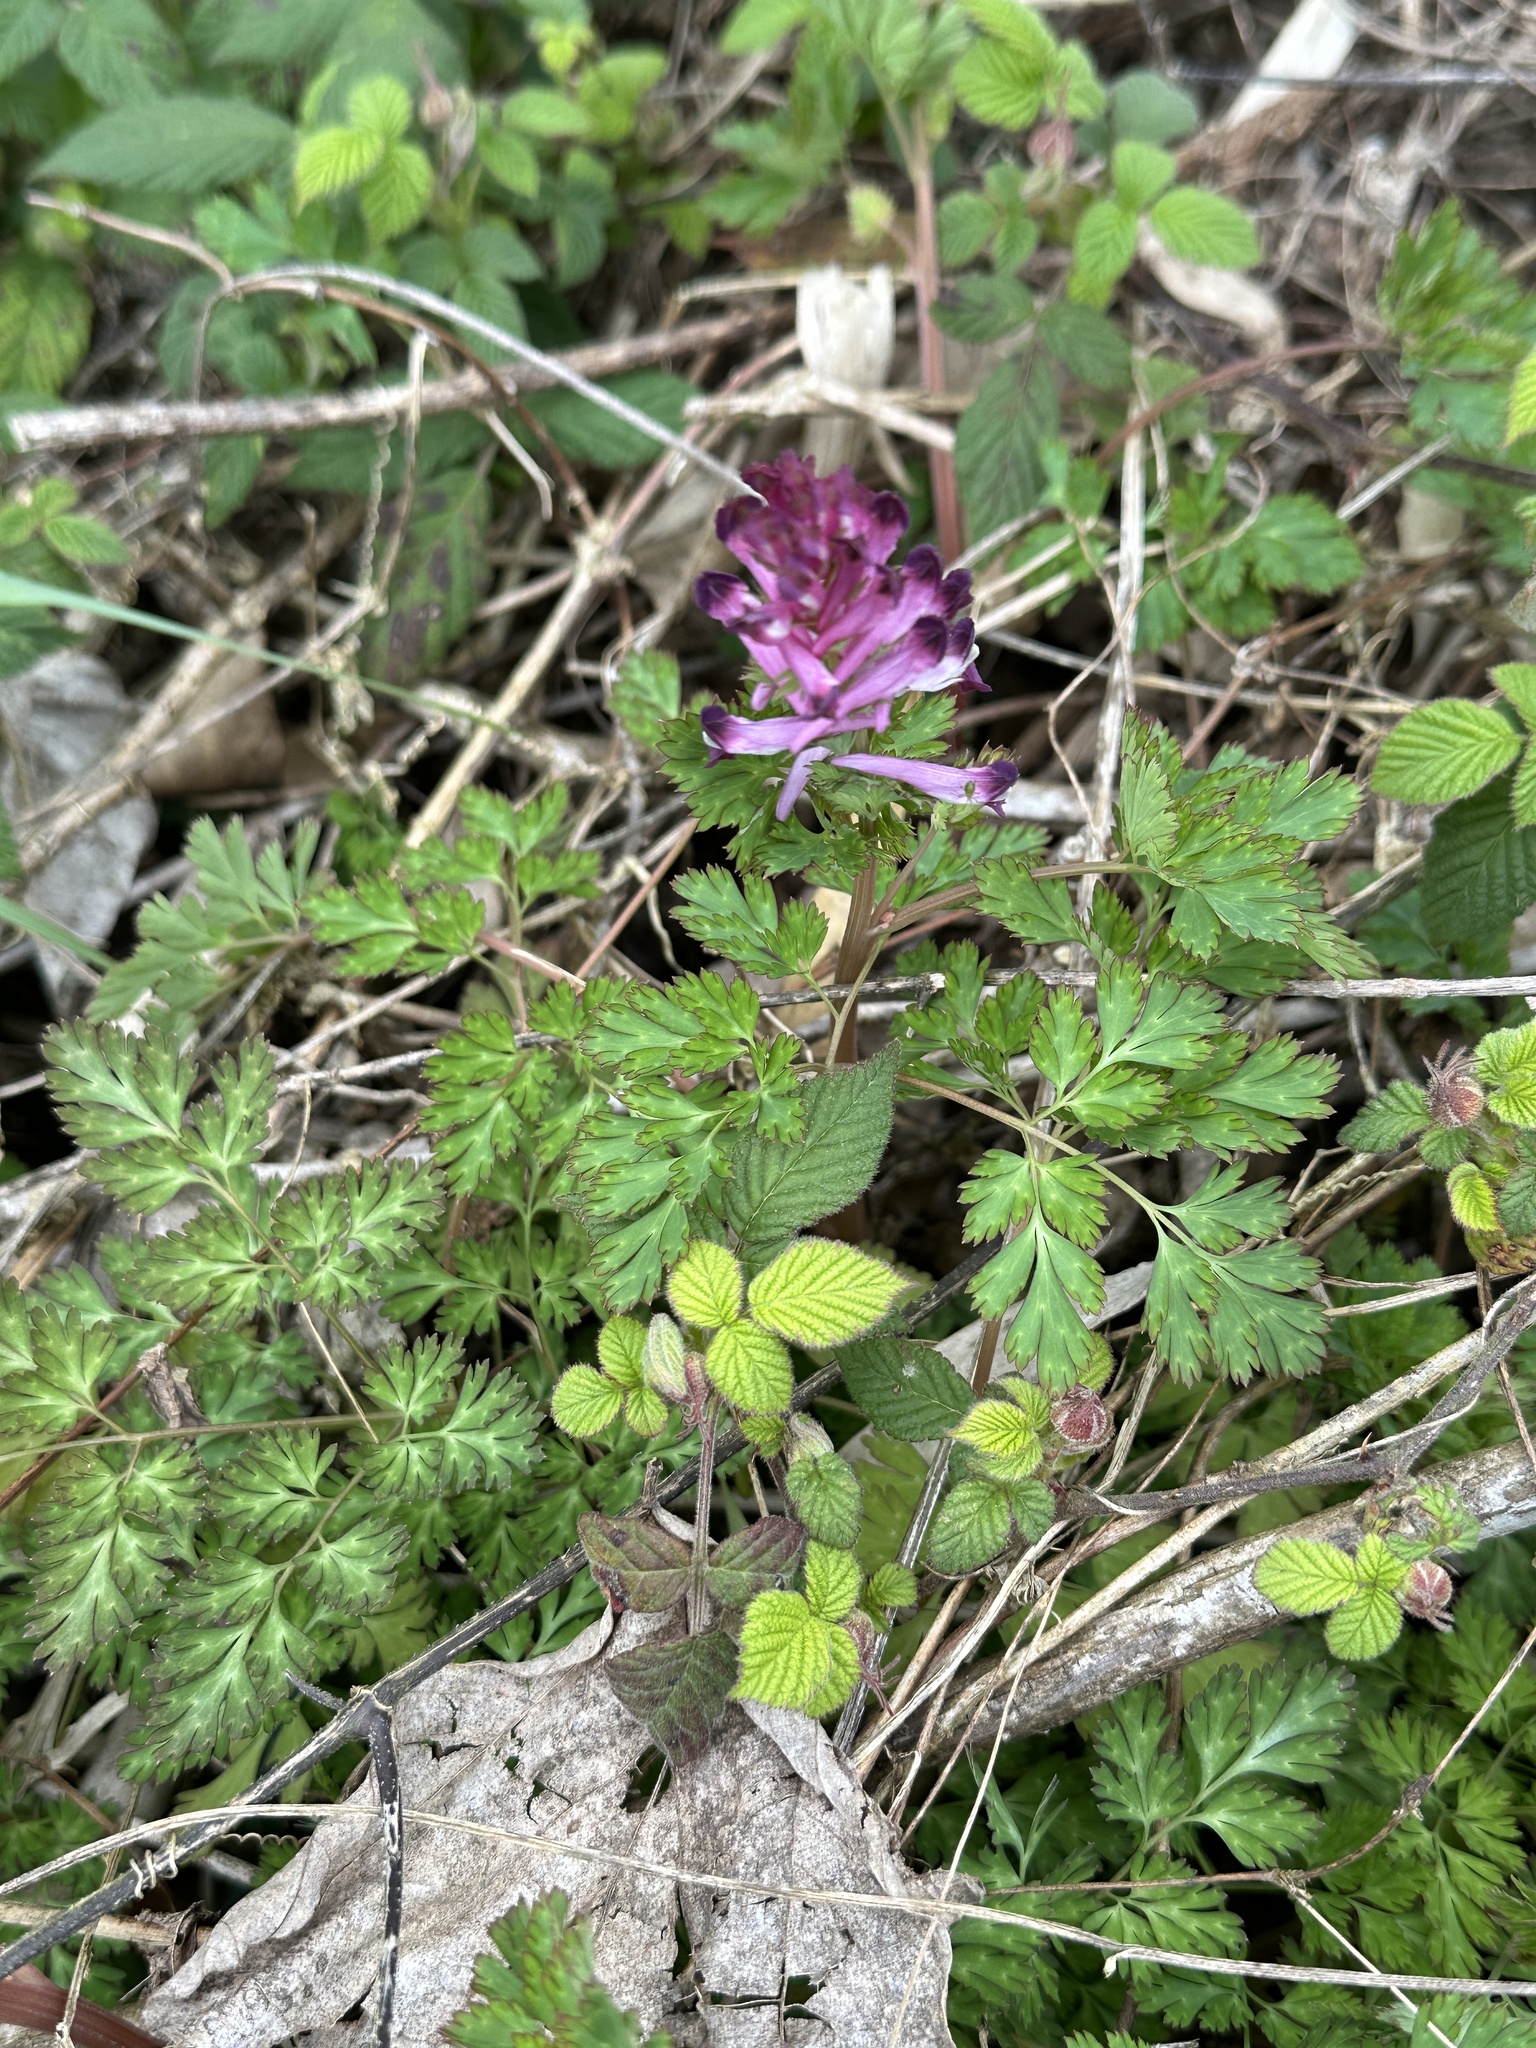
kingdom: Plantae
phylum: Tracheophyta
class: Magnoliopsida
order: Ranunculales
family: Papaveraceae
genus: Corydalis
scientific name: Corydalis incisa
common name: Incised fumewort
